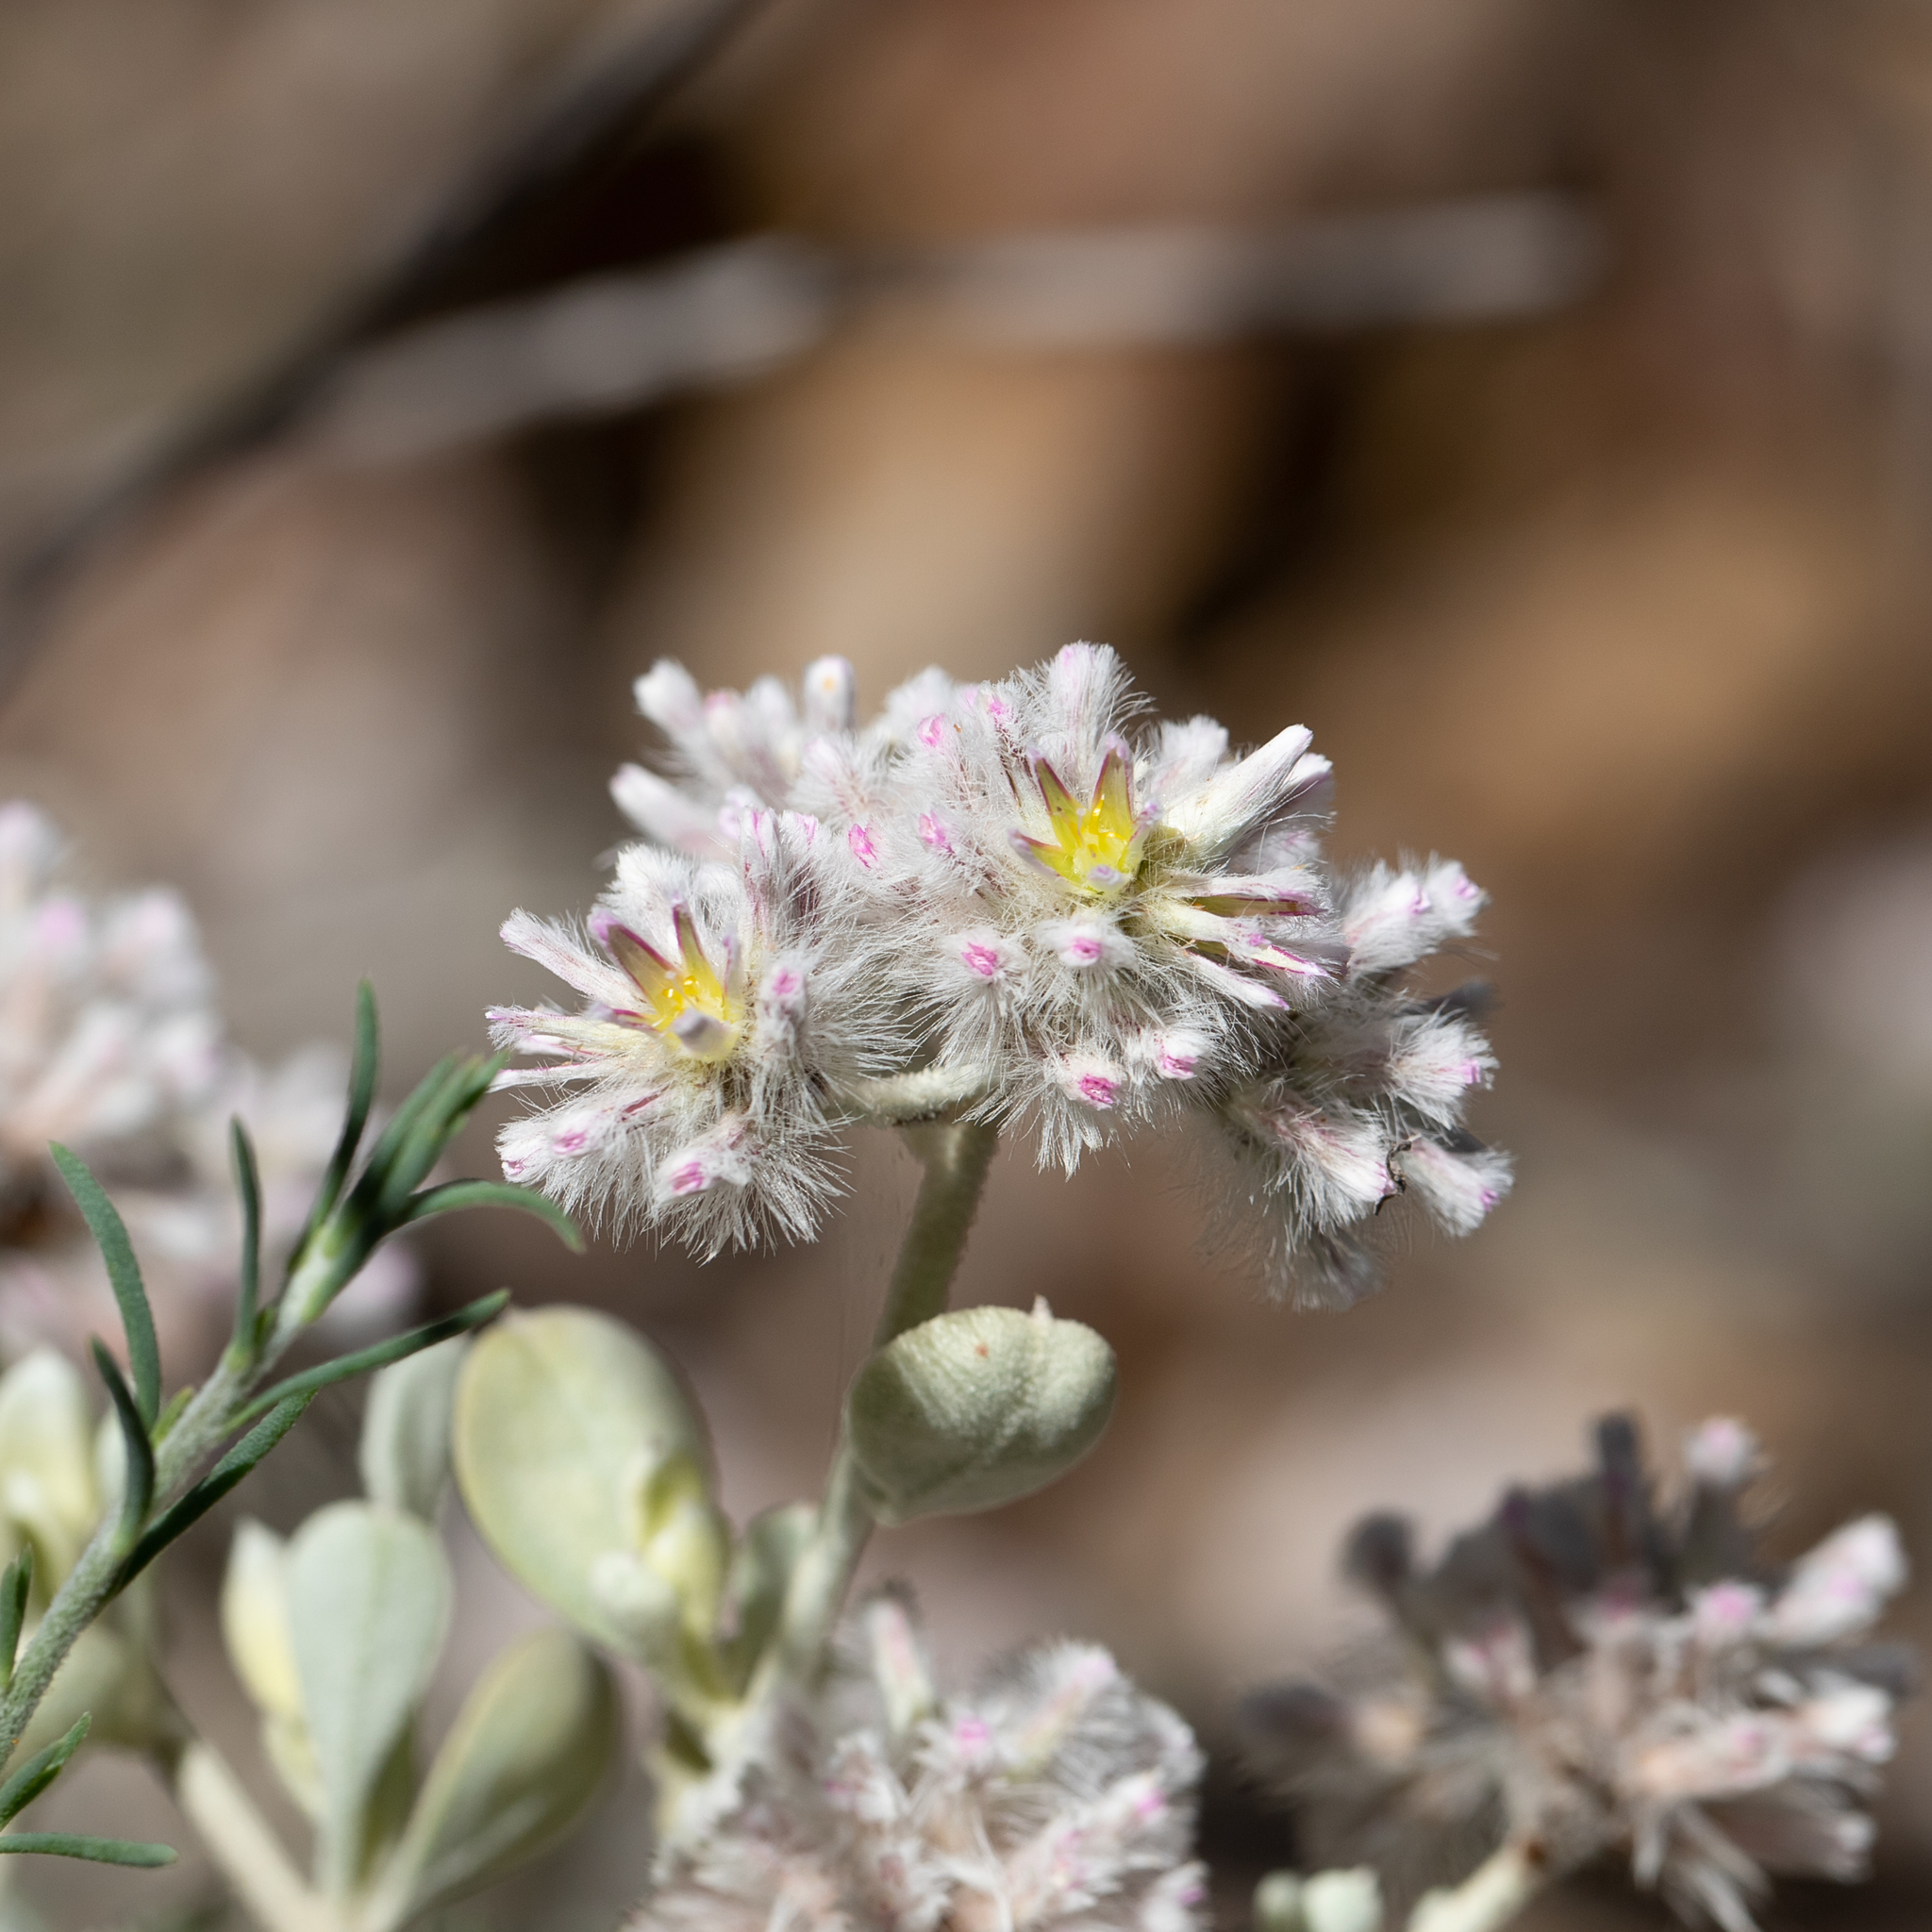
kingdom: Plantae
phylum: Tracheophyta
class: Magnoliopsida
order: Caryophyllales
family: Amaranthaceae
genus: Ptilotus
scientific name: Ptilotus obovatus
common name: Cottonbush
